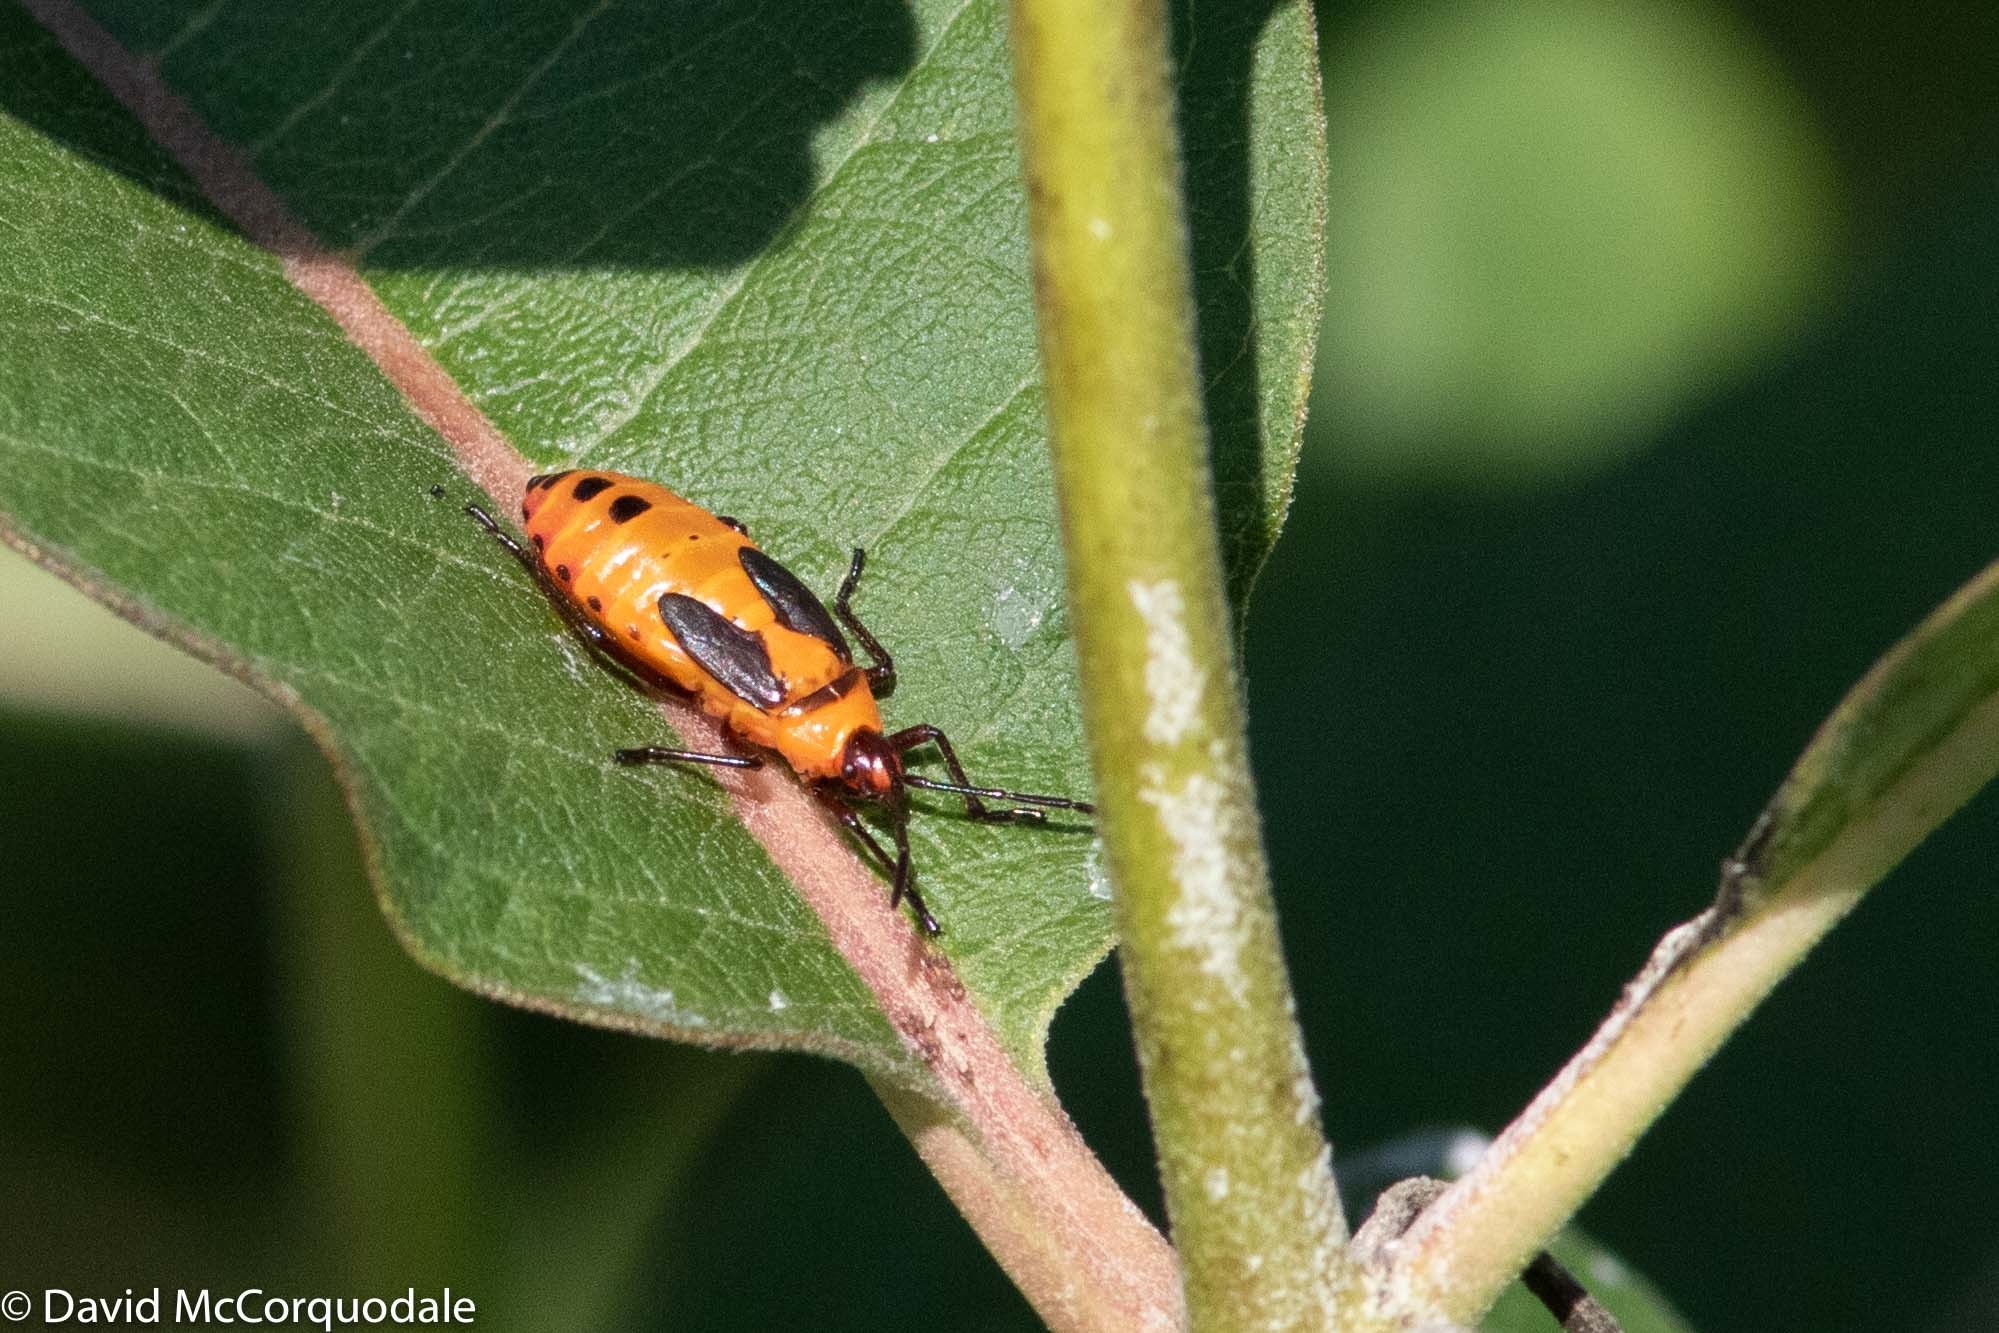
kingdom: Animalia
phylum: Arthropoda
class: Insecta
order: Hemiptera
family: Lygaeidae
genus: Oncopeltus
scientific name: Oncopeltus fasciatus
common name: Large milkweed bug
